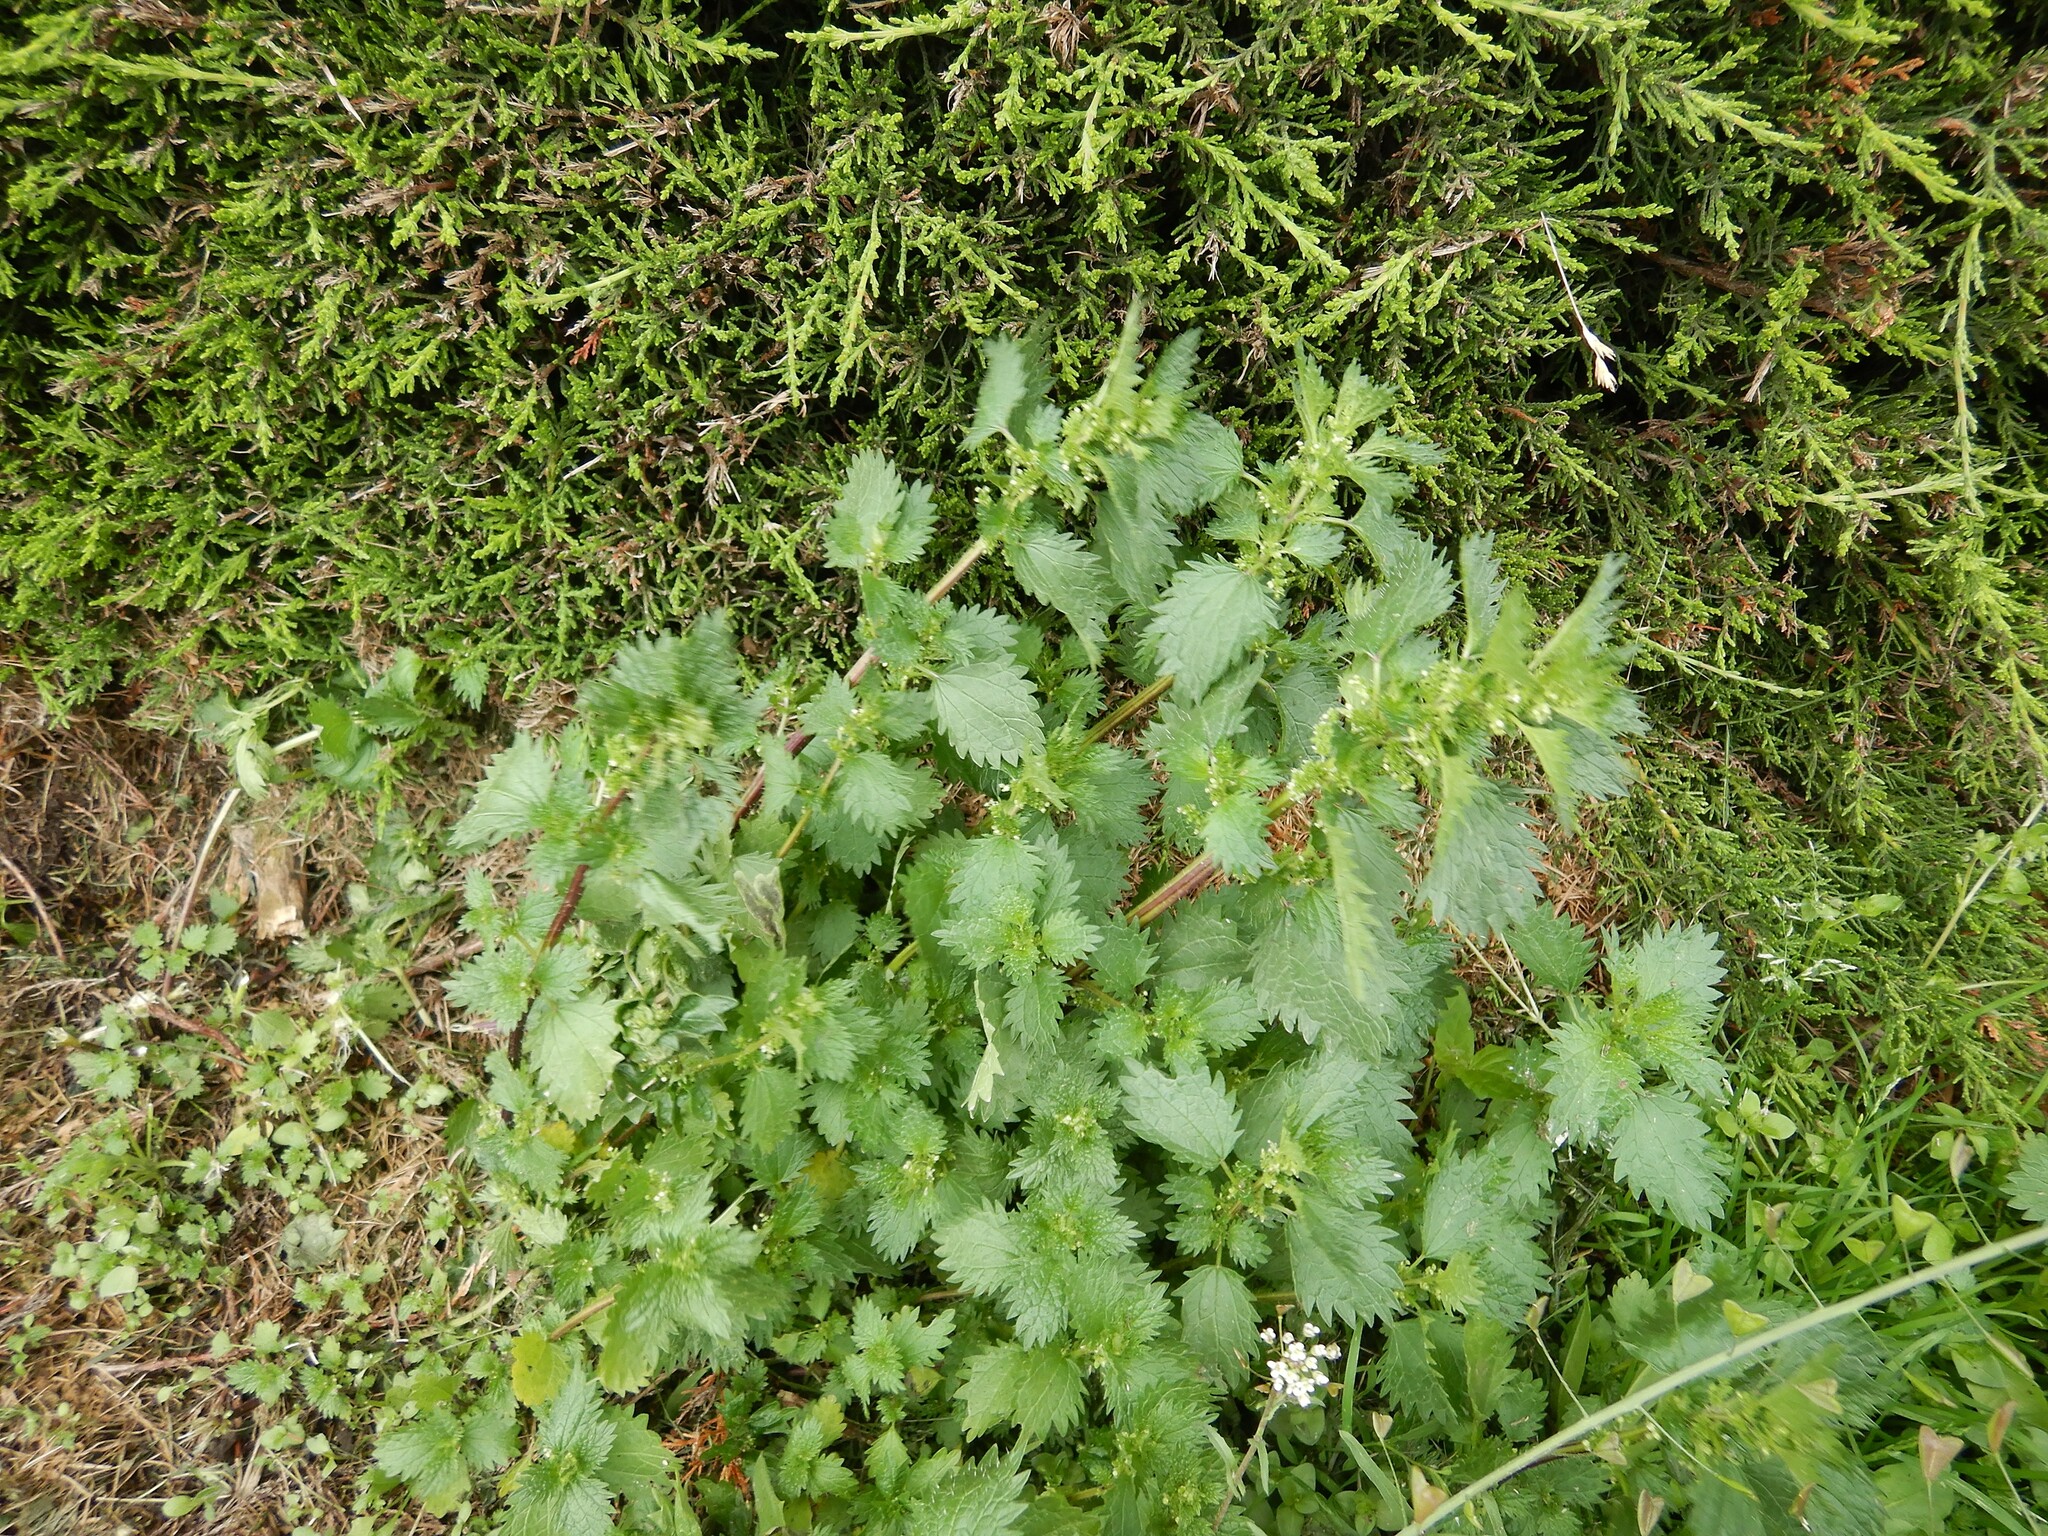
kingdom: Plantae
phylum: Tracheophyta
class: Magnoliopsida
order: Rosales
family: Urticaceae
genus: Urtica
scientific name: Urtica urens
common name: Dwarf nettle
